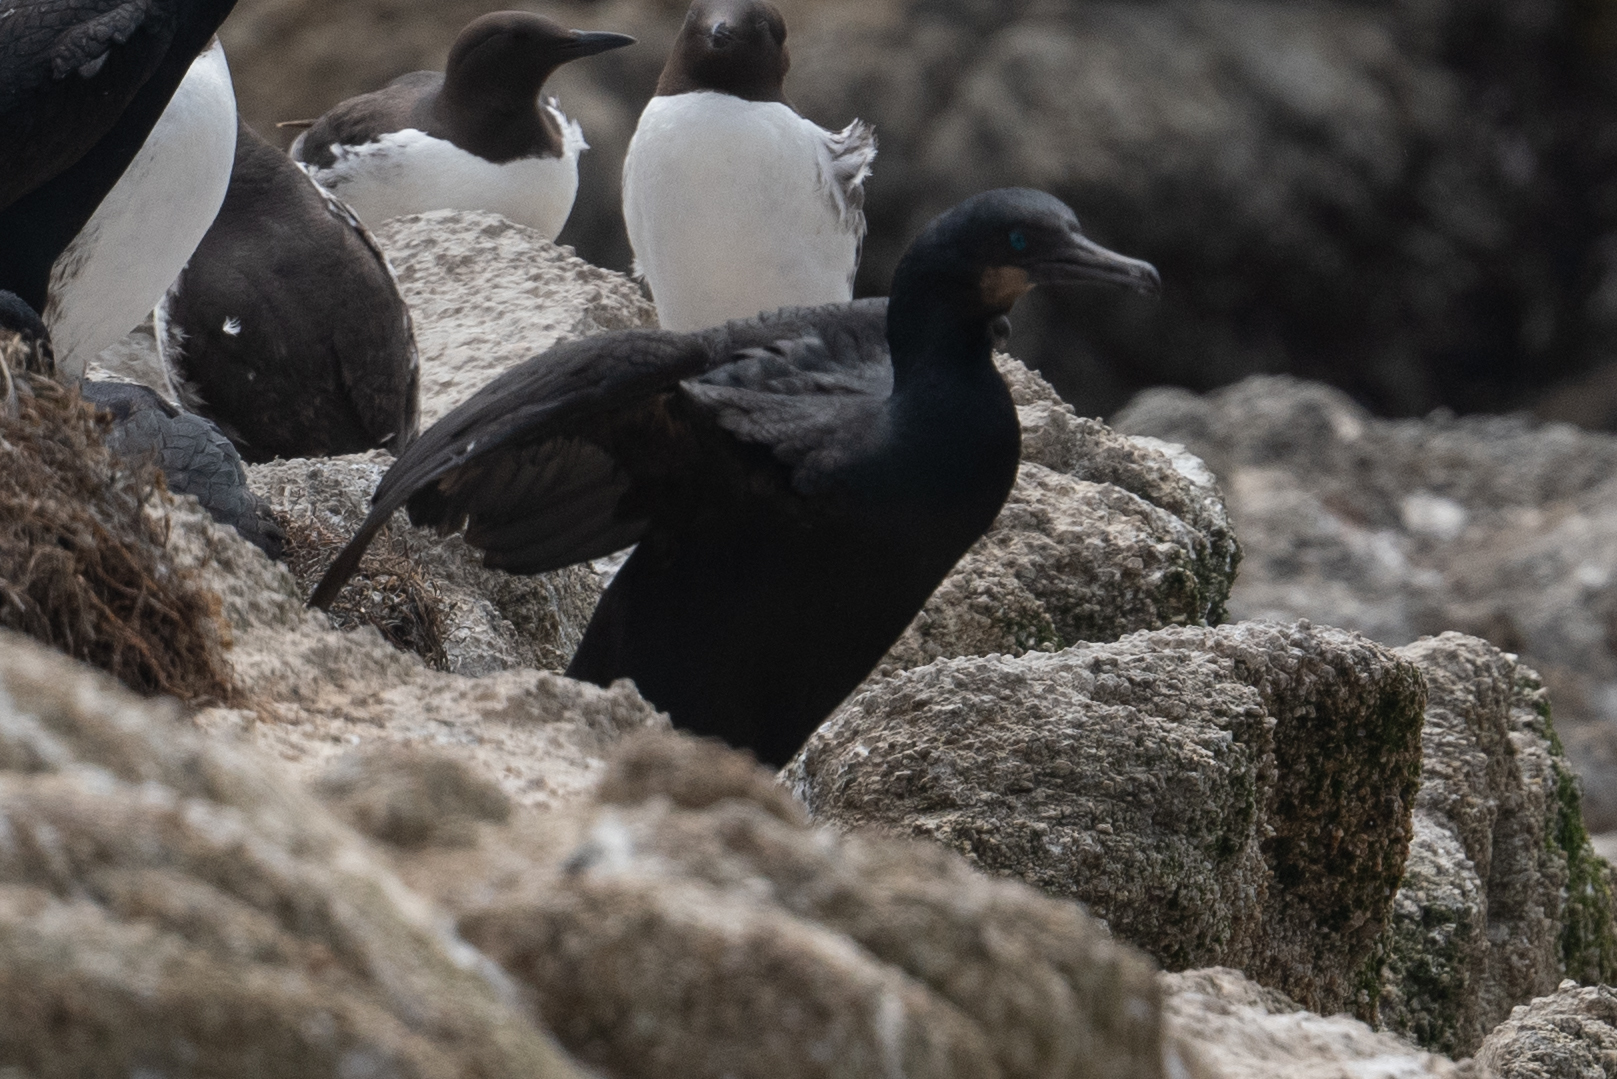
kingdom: Animalia
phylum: Chordata
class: Aves
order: Suliformes
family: Phalacrocoracidae
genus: Urile
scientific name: Urile penicillatus
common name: Brandt's cormorant
